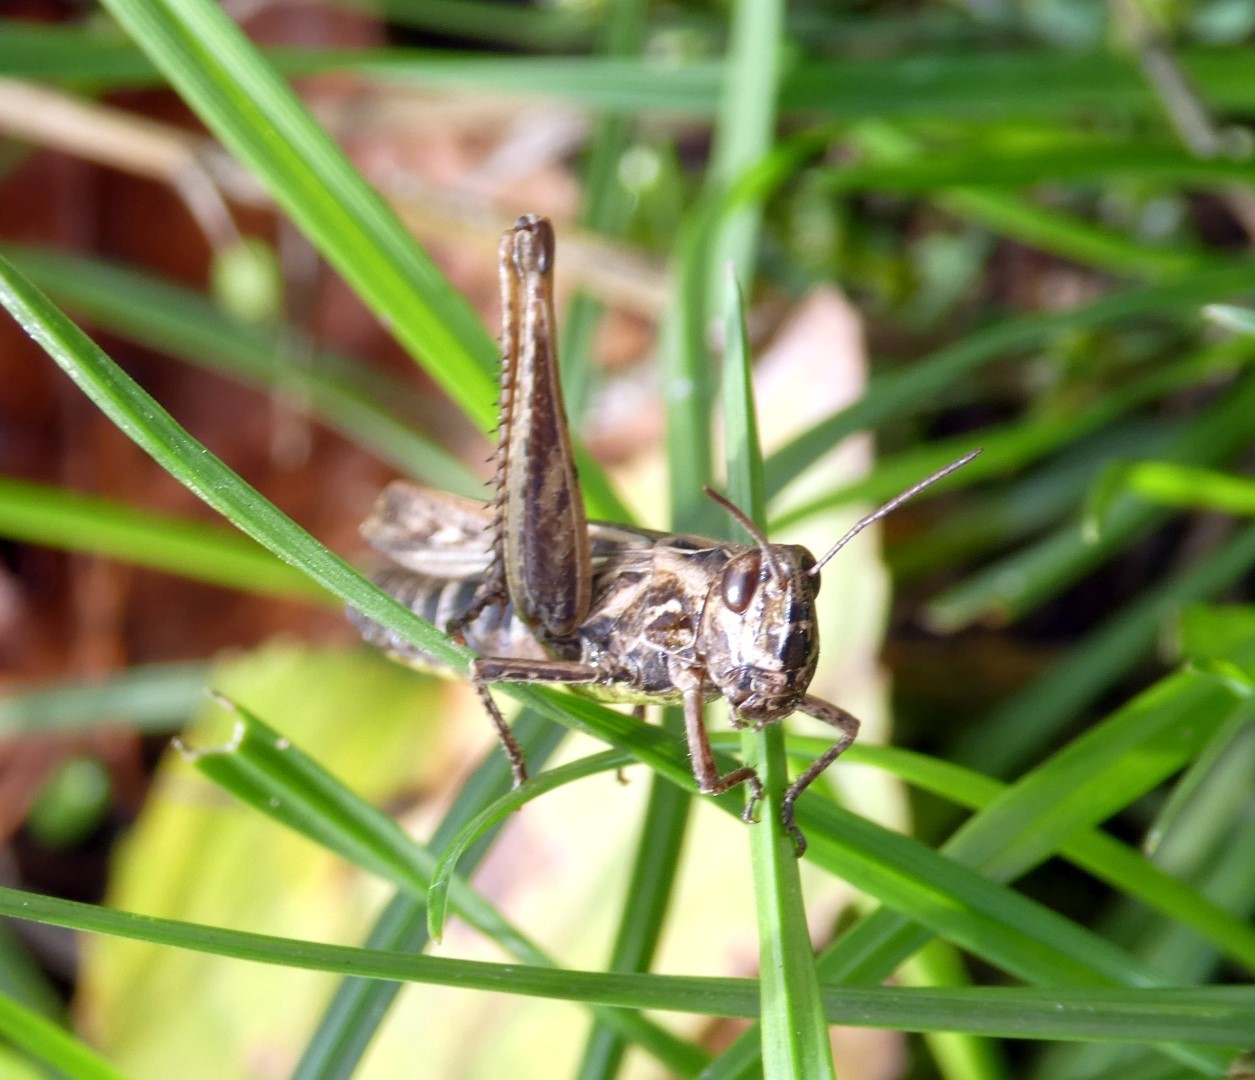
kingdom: Animalia
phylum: Arthropoda
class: Insecta
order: Orthoptera
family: Acrididae
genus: Chorthippus
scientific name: Chorthippus brunneus
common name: Field grasshopper
